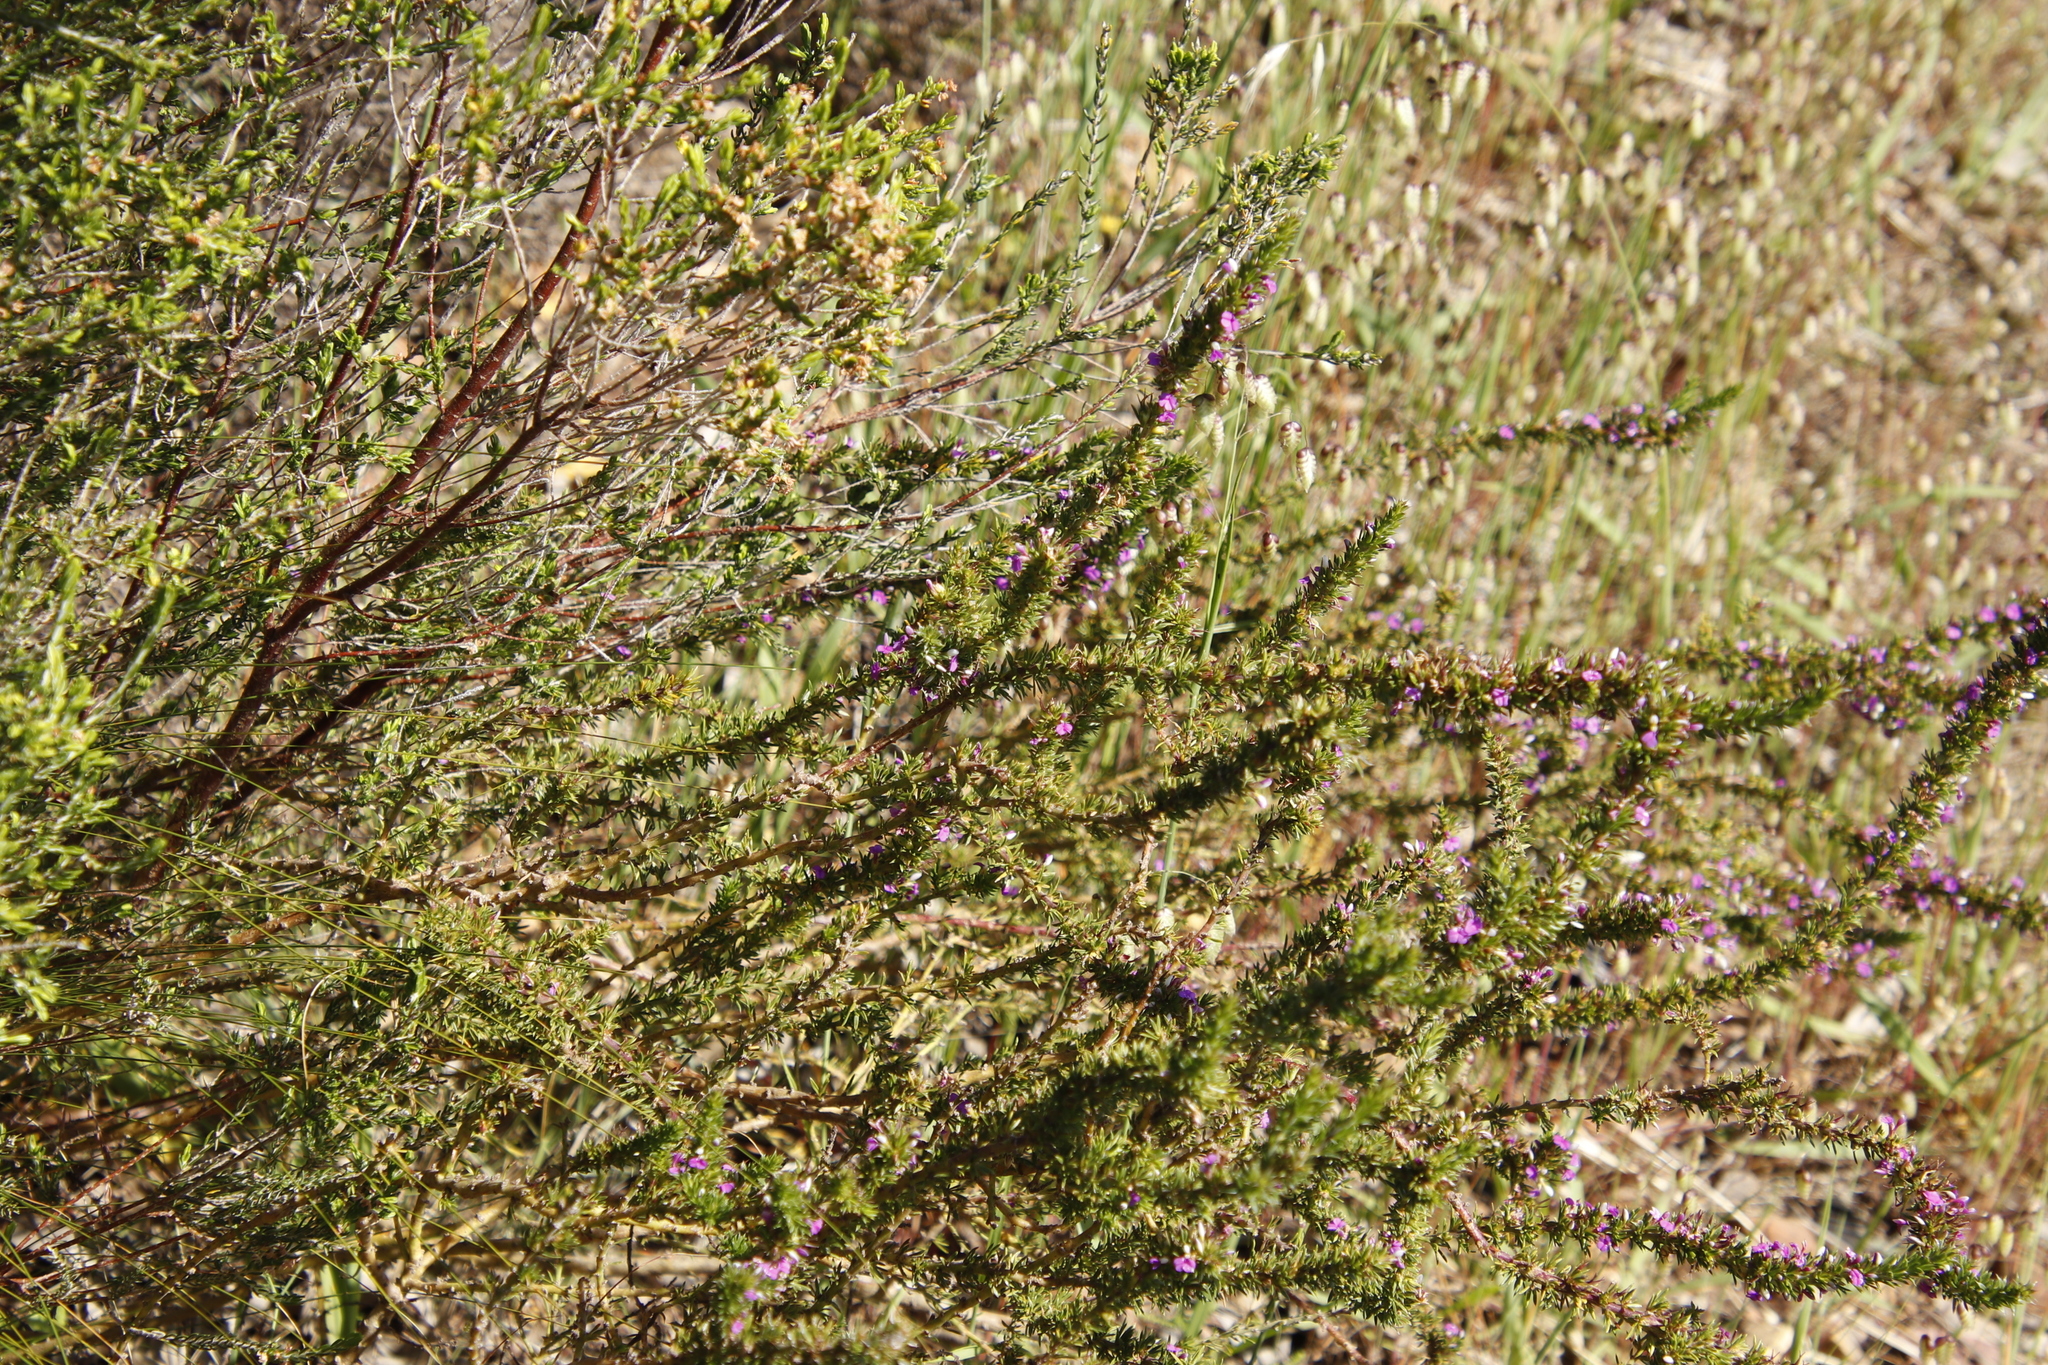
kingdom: Plantae
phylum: Tracheophyta
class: Magnoliopsida
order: Fabales
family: Polygalaceae
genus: Muraltia
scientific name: Muraltia heisteria
